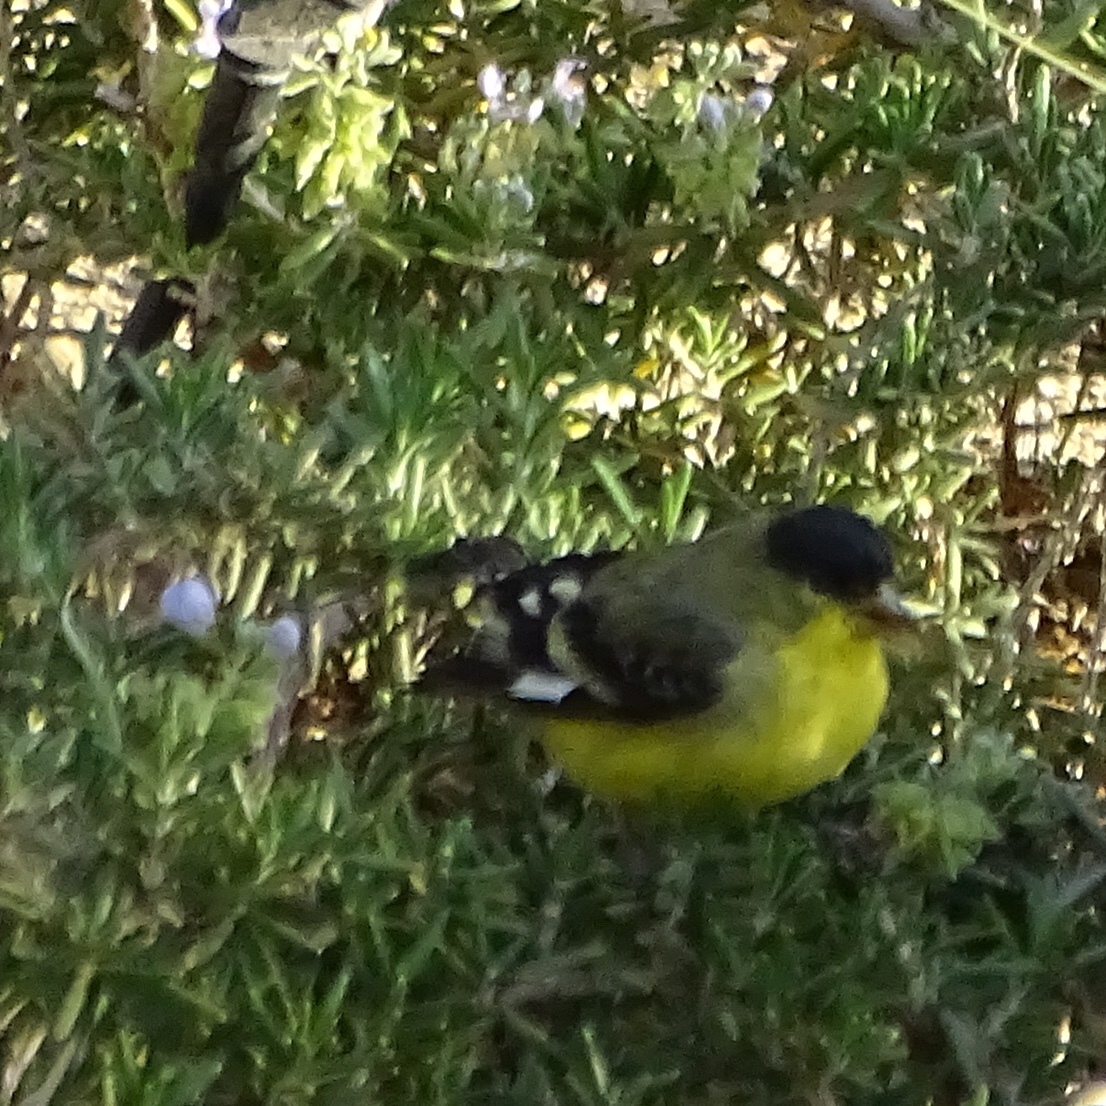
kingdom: Animalia
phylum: Chordata
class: Aves
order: Passeriformes
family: Fringillidae
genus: Spinus
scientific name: Spinus psaltria
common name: Lesser goldfinch
